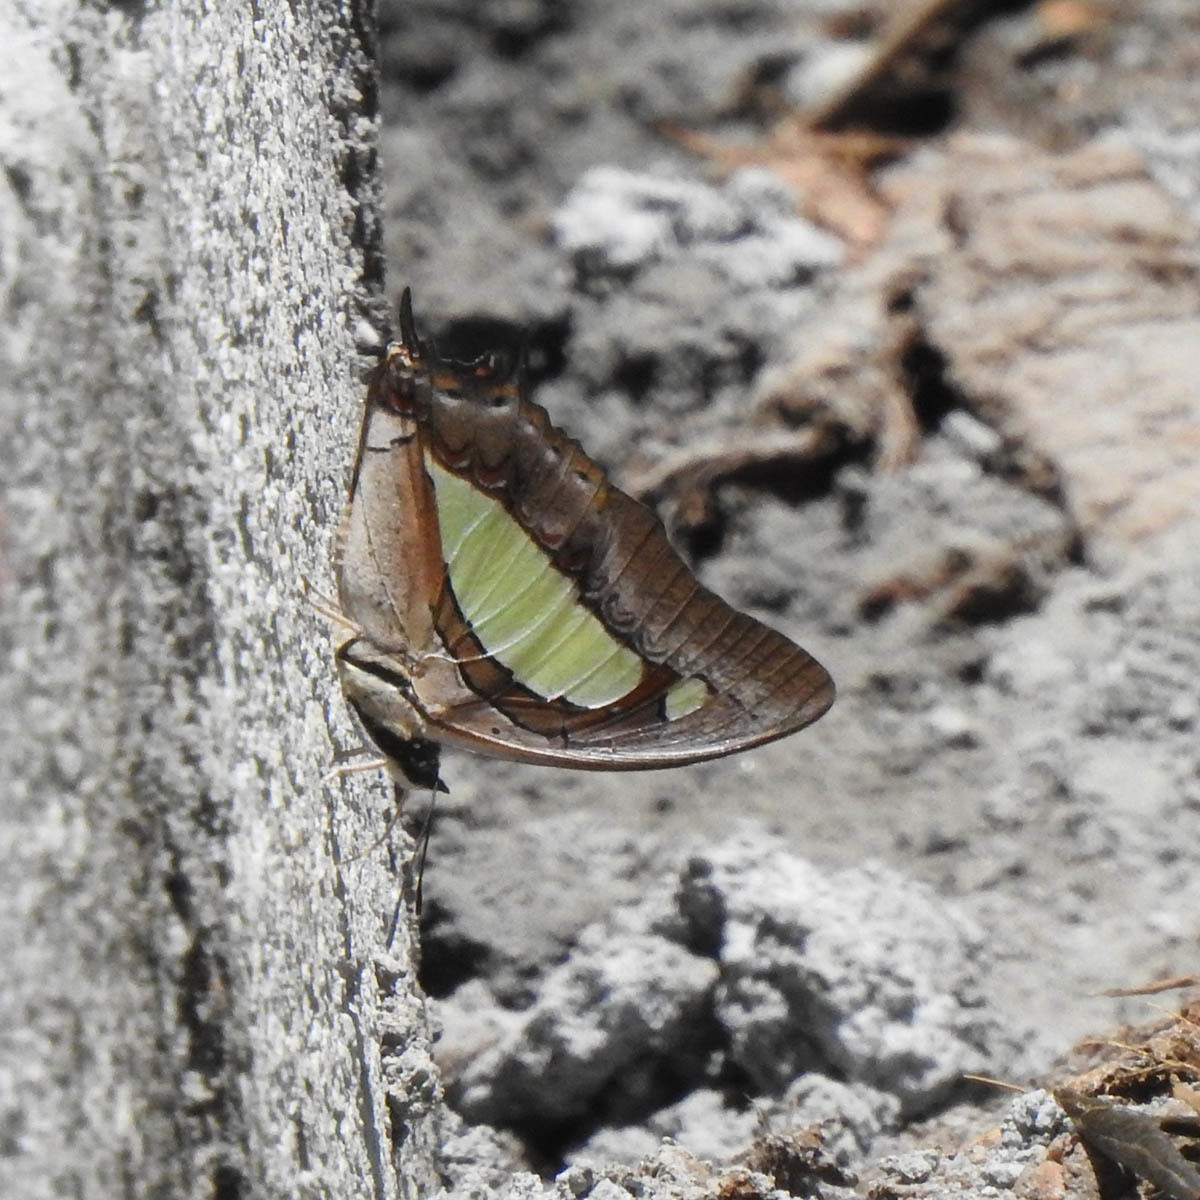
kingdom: Animalia
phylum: Arthropoda
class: Insecta
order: Lepidoptera
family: Nymphalidae
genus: Polyura
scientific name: Polyura
